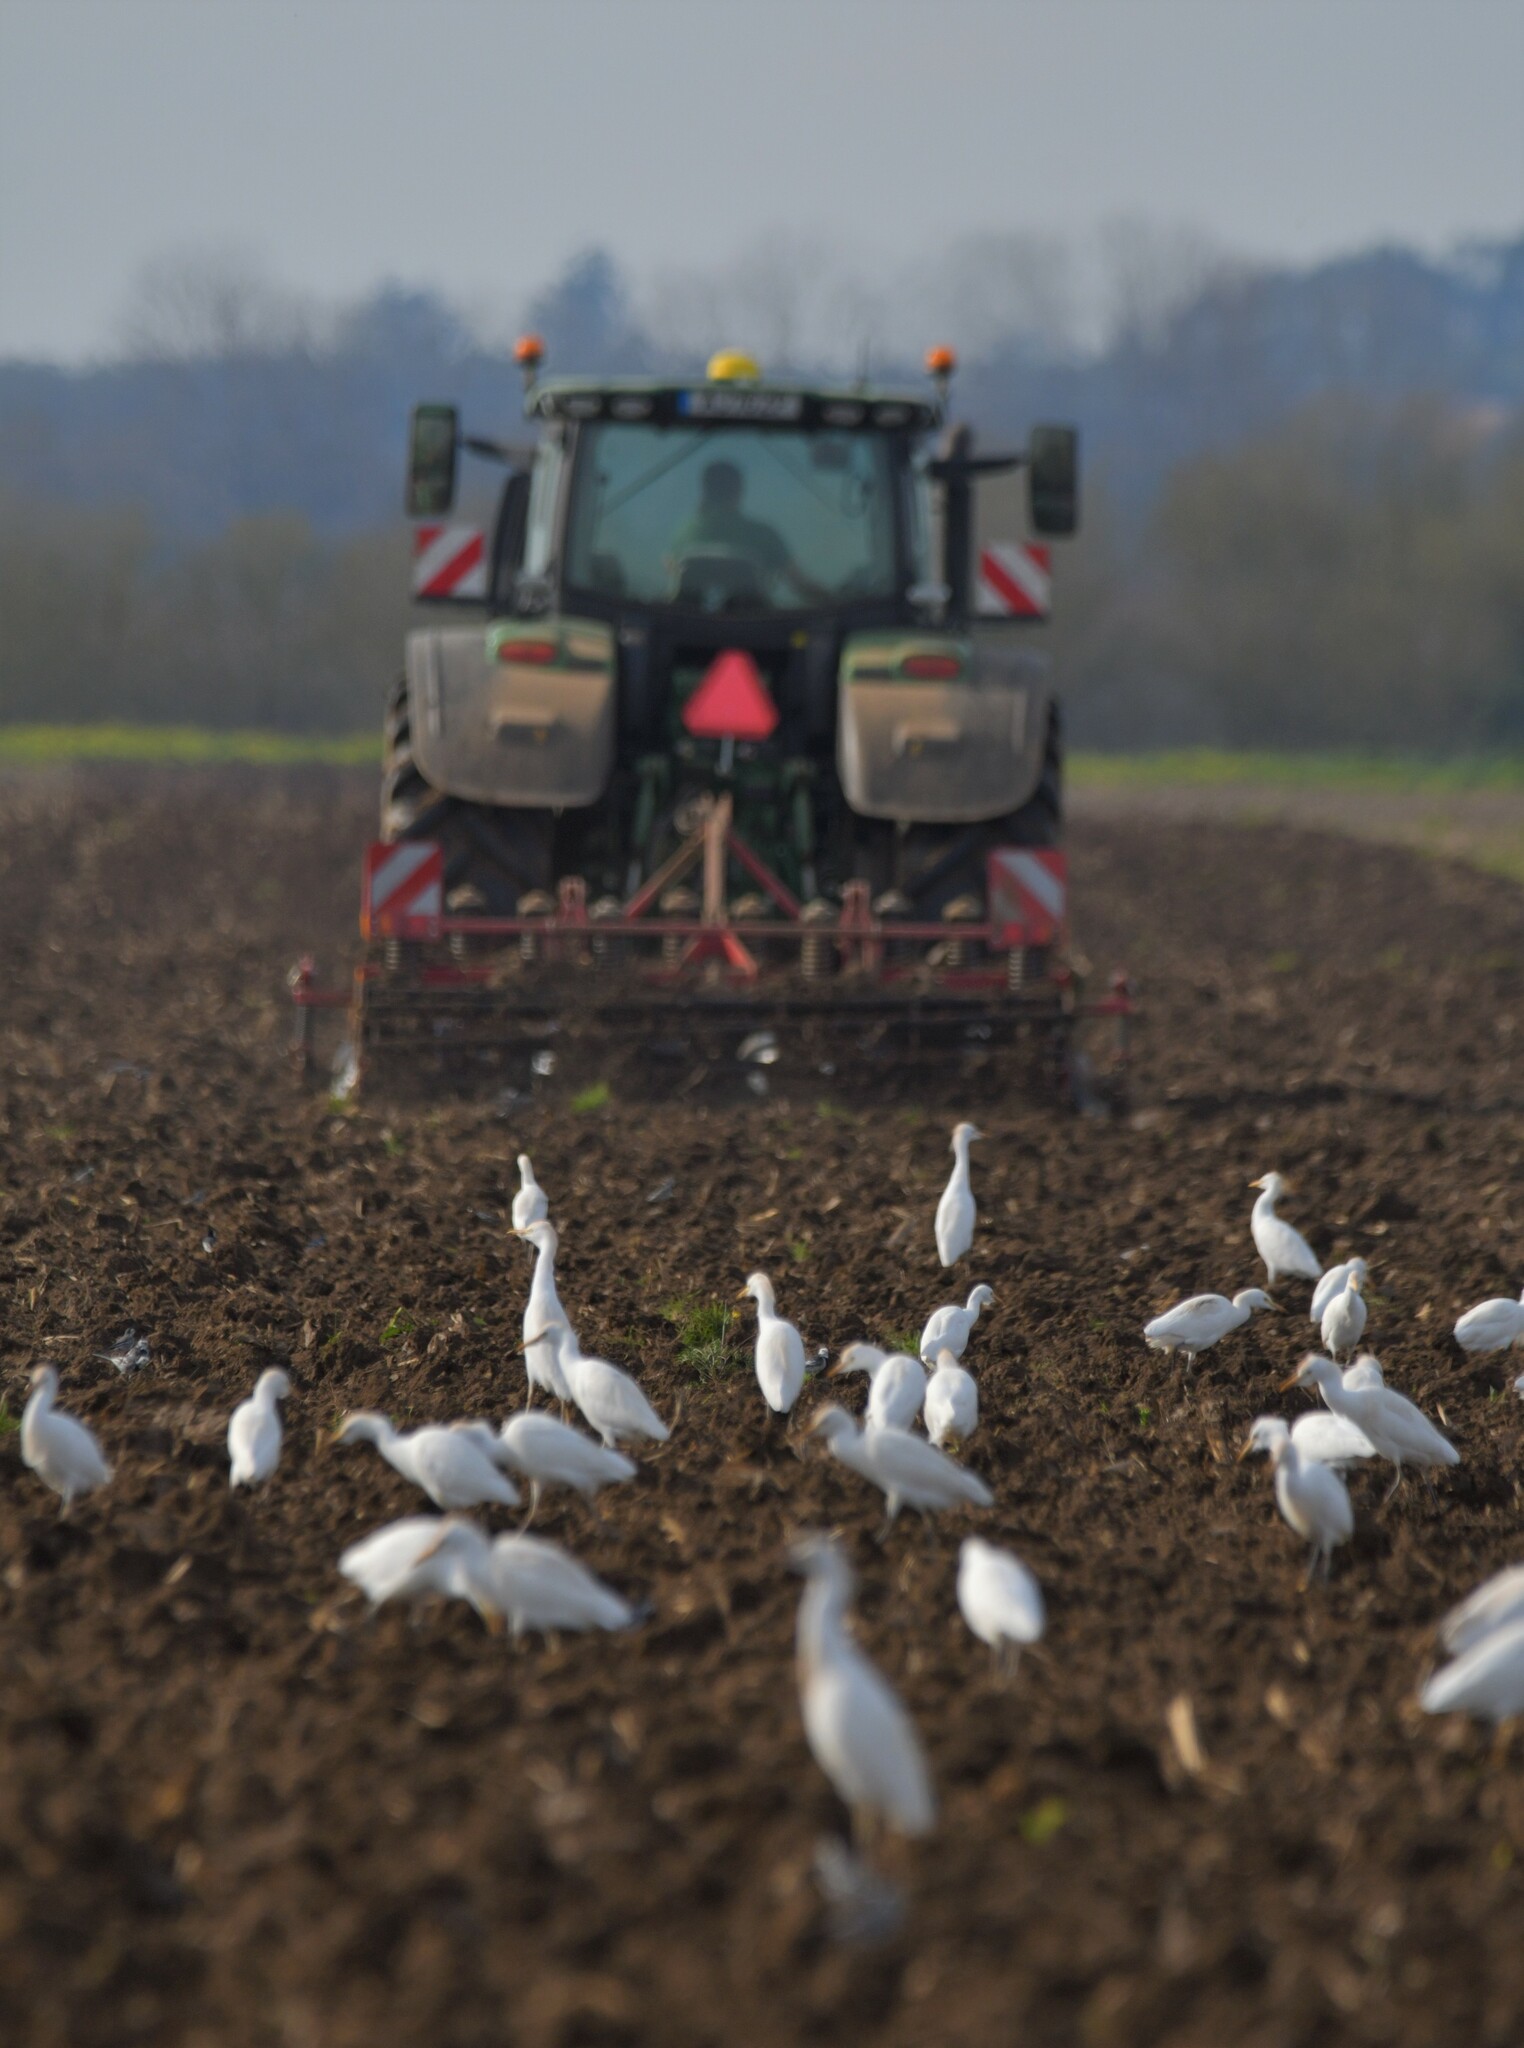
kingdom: Animalia
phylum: Chordata
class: Aves
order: Pelecaniformes
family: Ardeidae
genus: Bubulcus
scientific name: Bubulcus ibis
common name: Cattle egret
